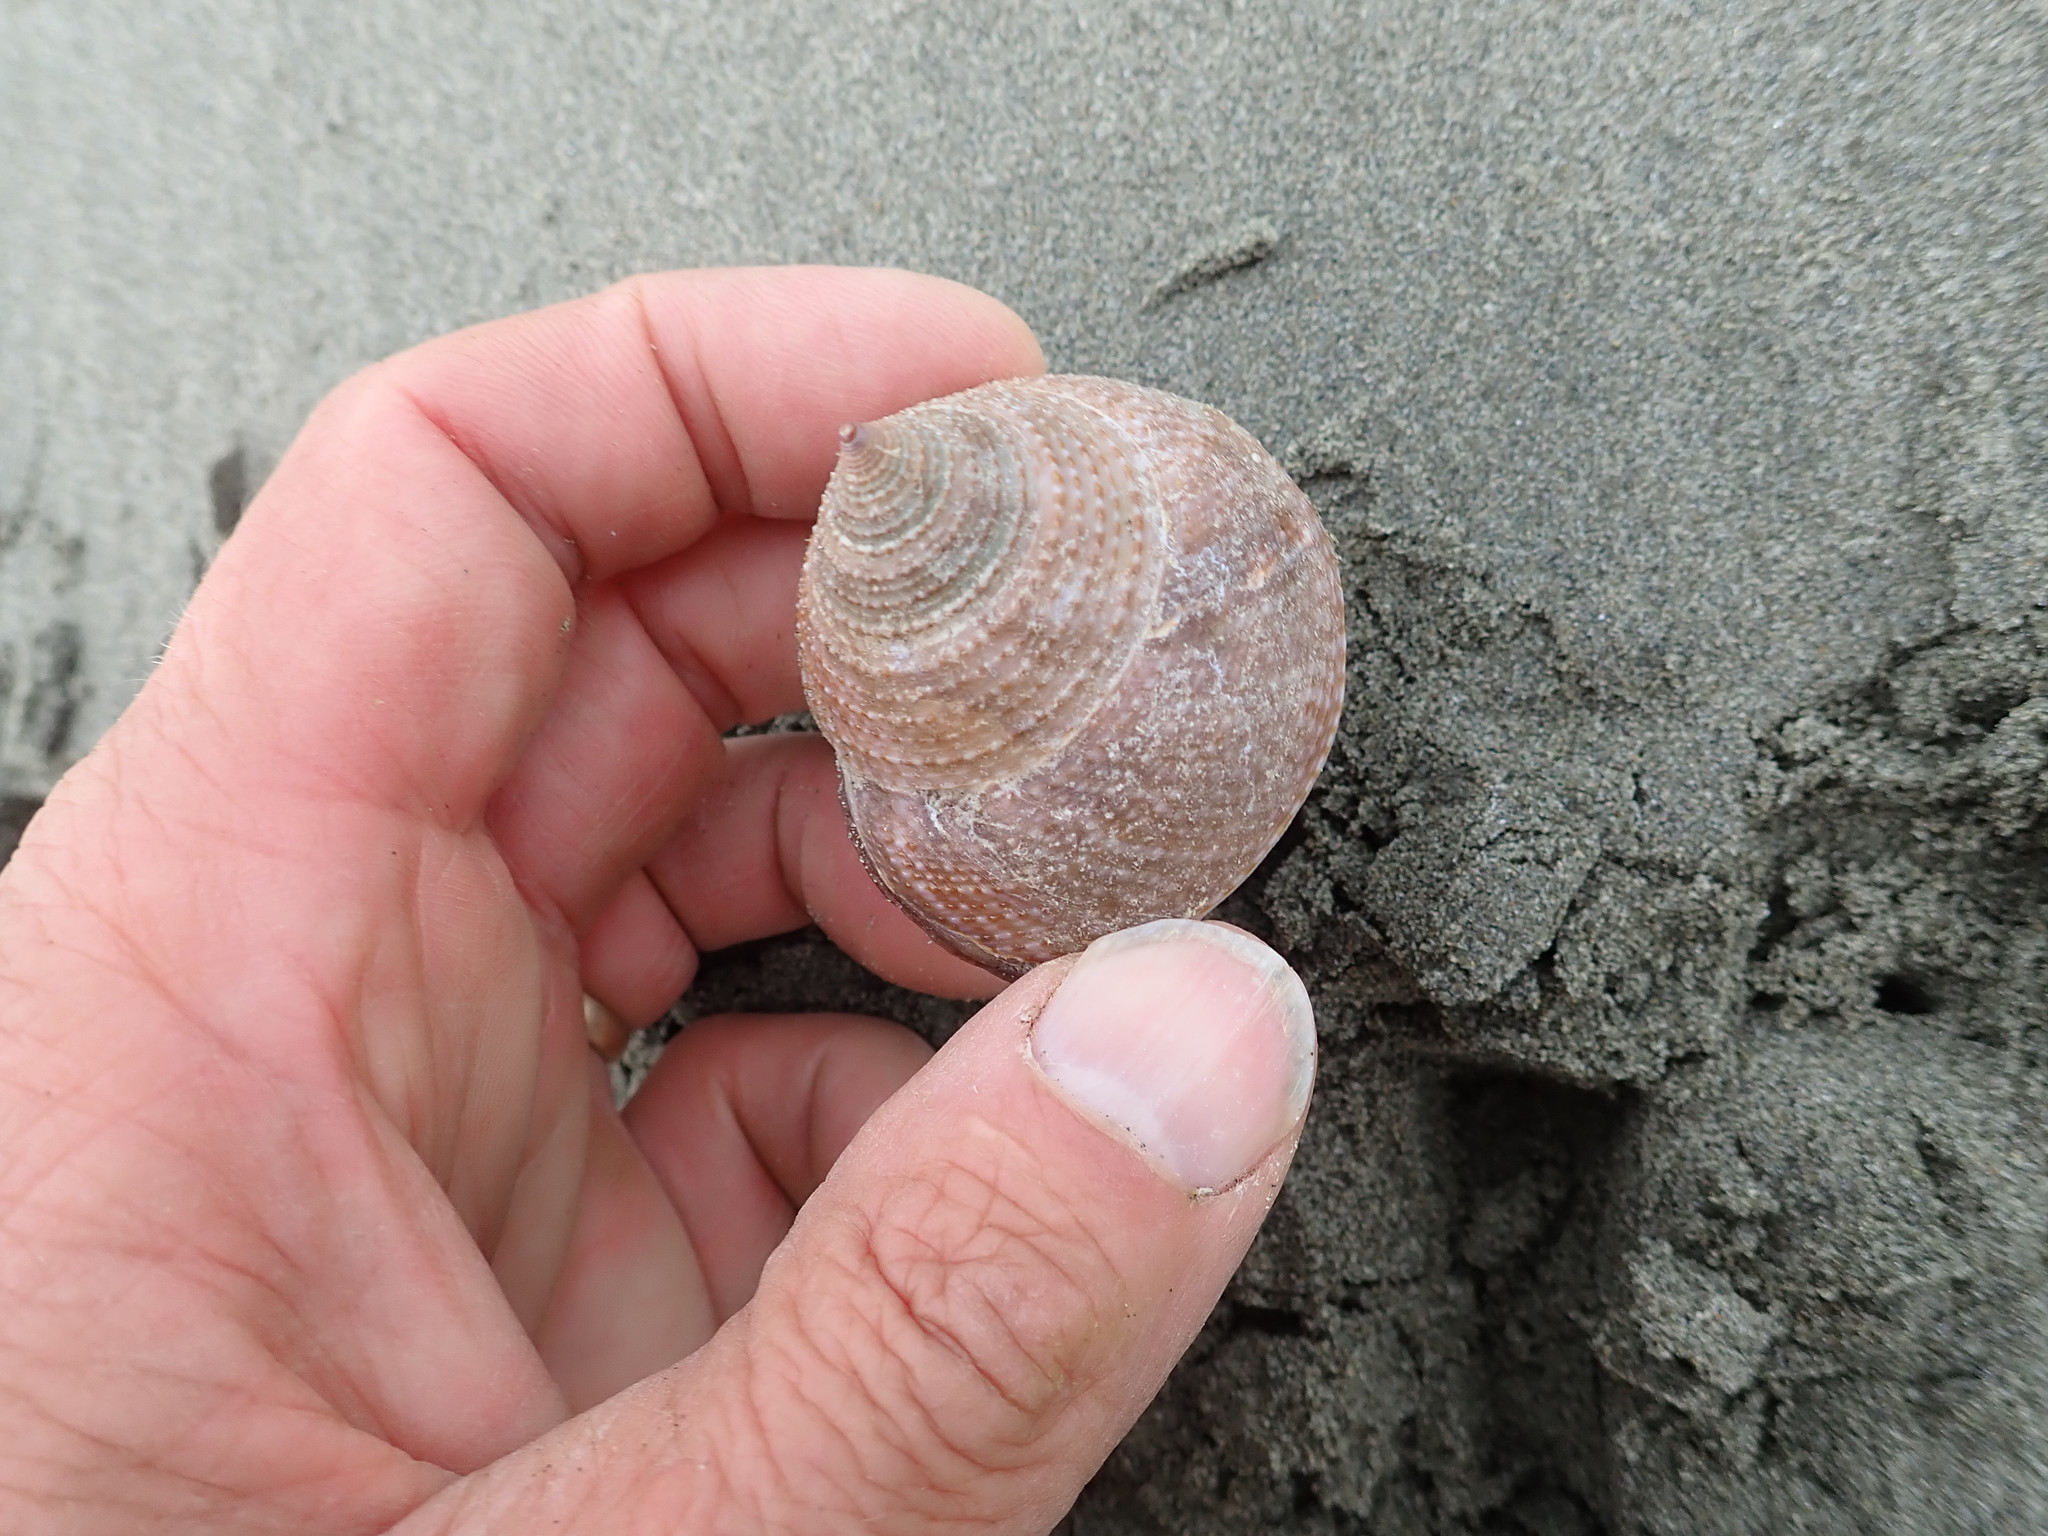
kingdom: Animalia
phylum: Mollusca
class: Gastropoda
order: Trochida
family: Calliostomatidae
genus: Maurea
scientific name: Maurea selecta
